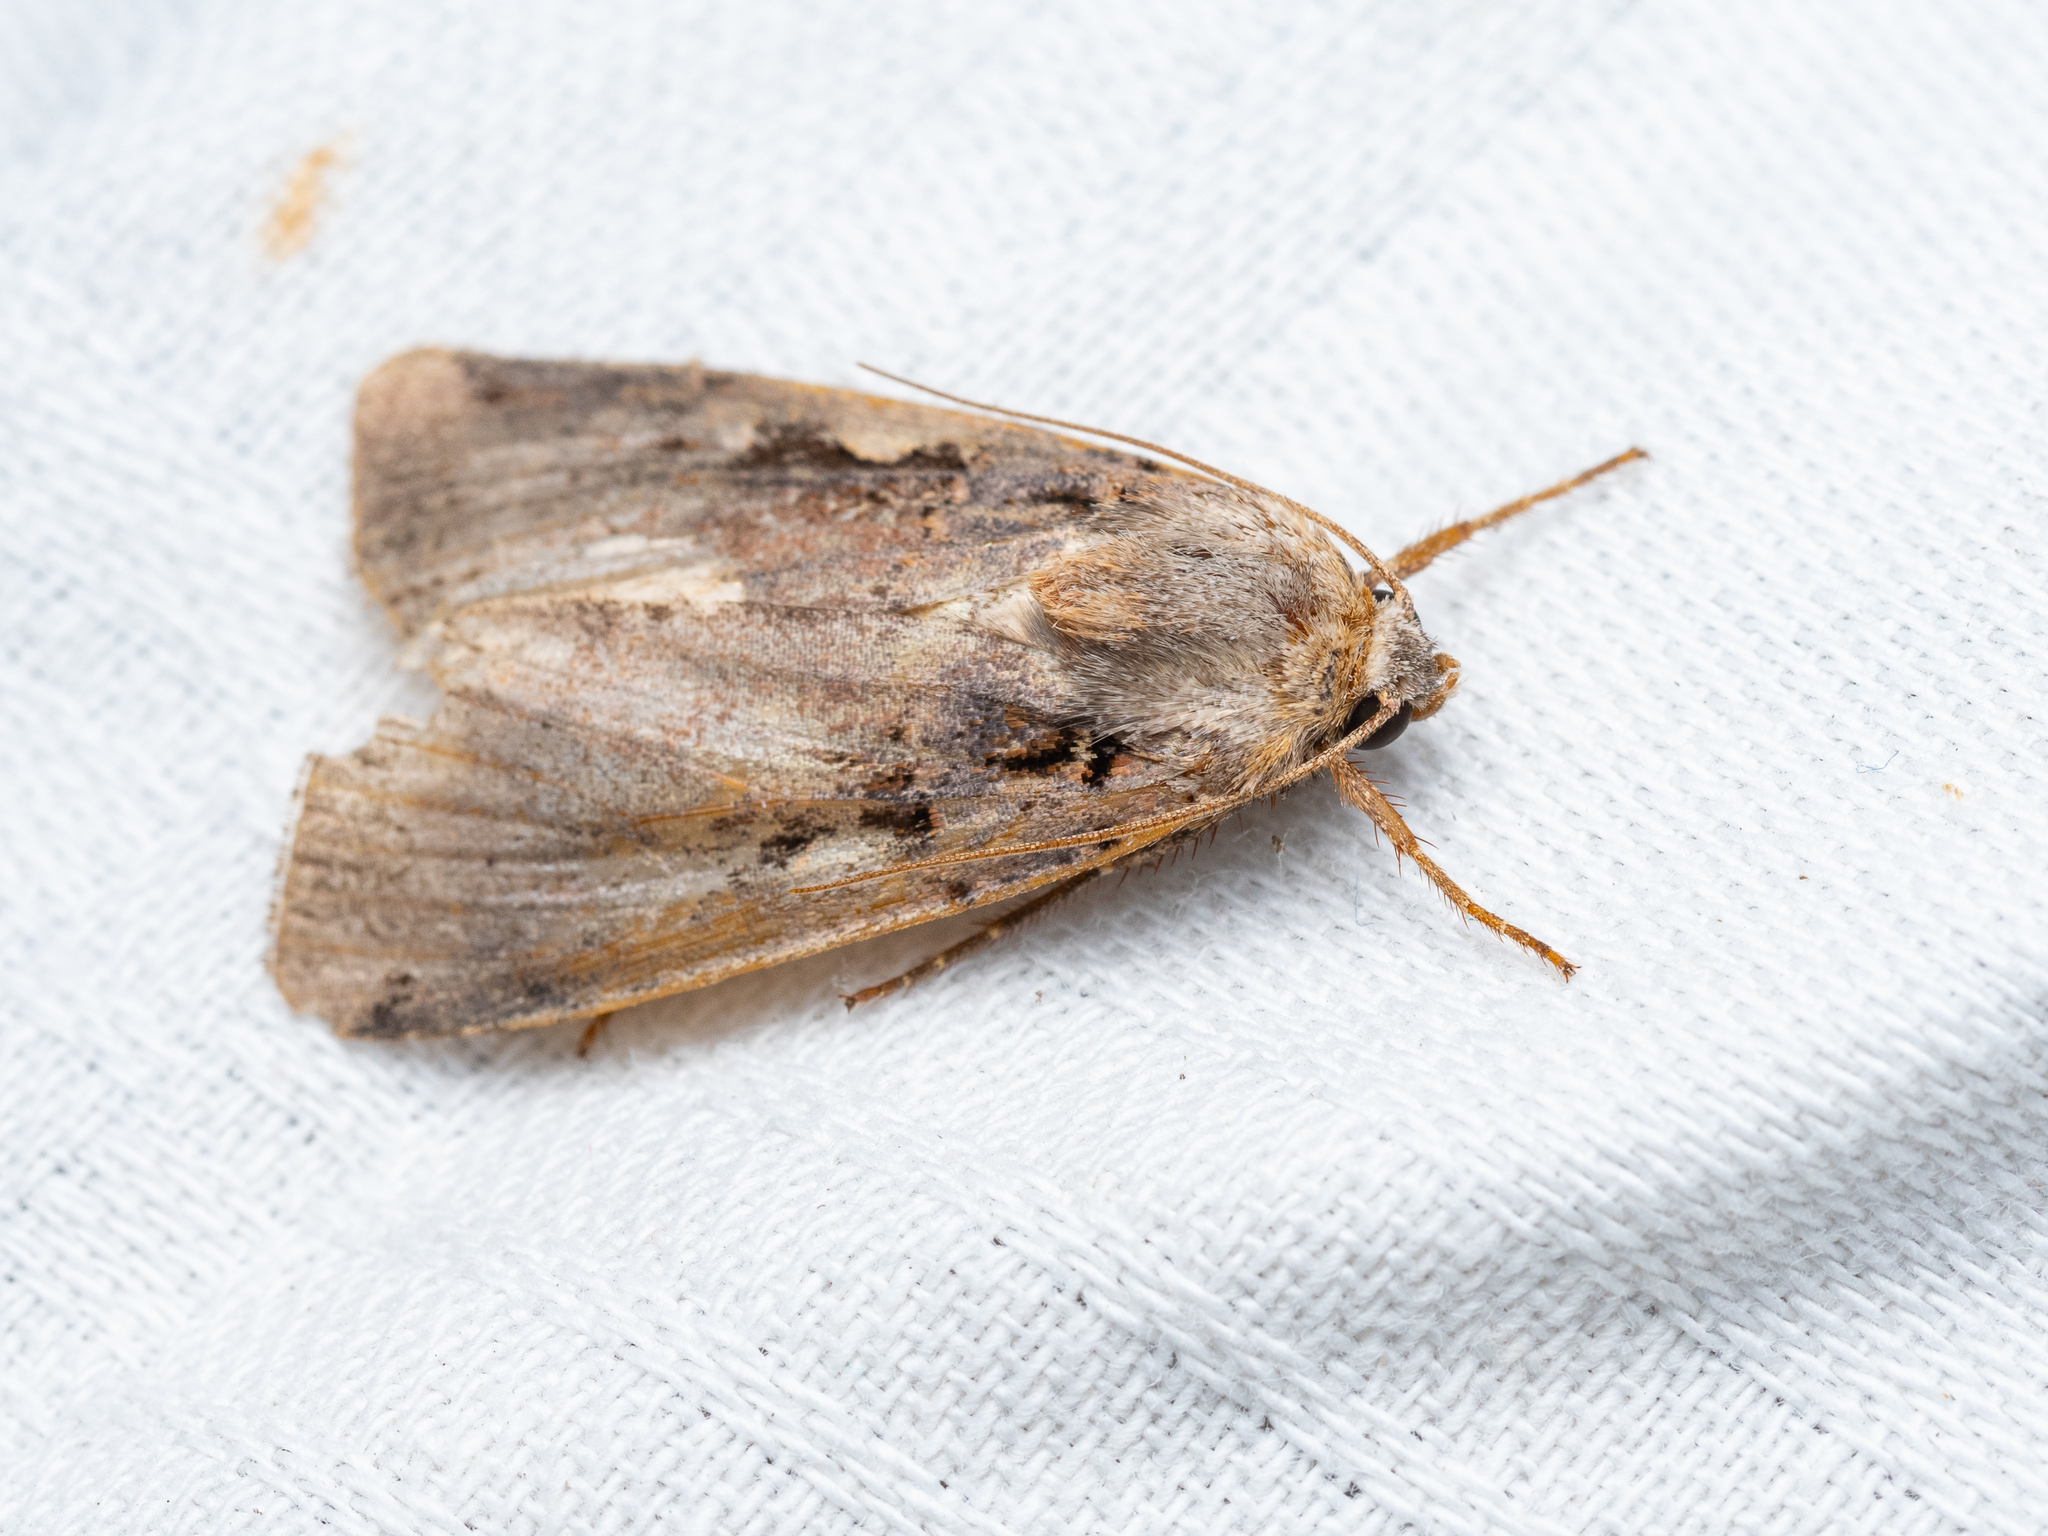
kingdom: Animalia
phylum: Arthropoda
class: Insecta
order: Lepidoptera
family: Noctuidae
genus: Xestia
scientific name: Xestia c-nigrum
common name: Setaceous hebrew character
